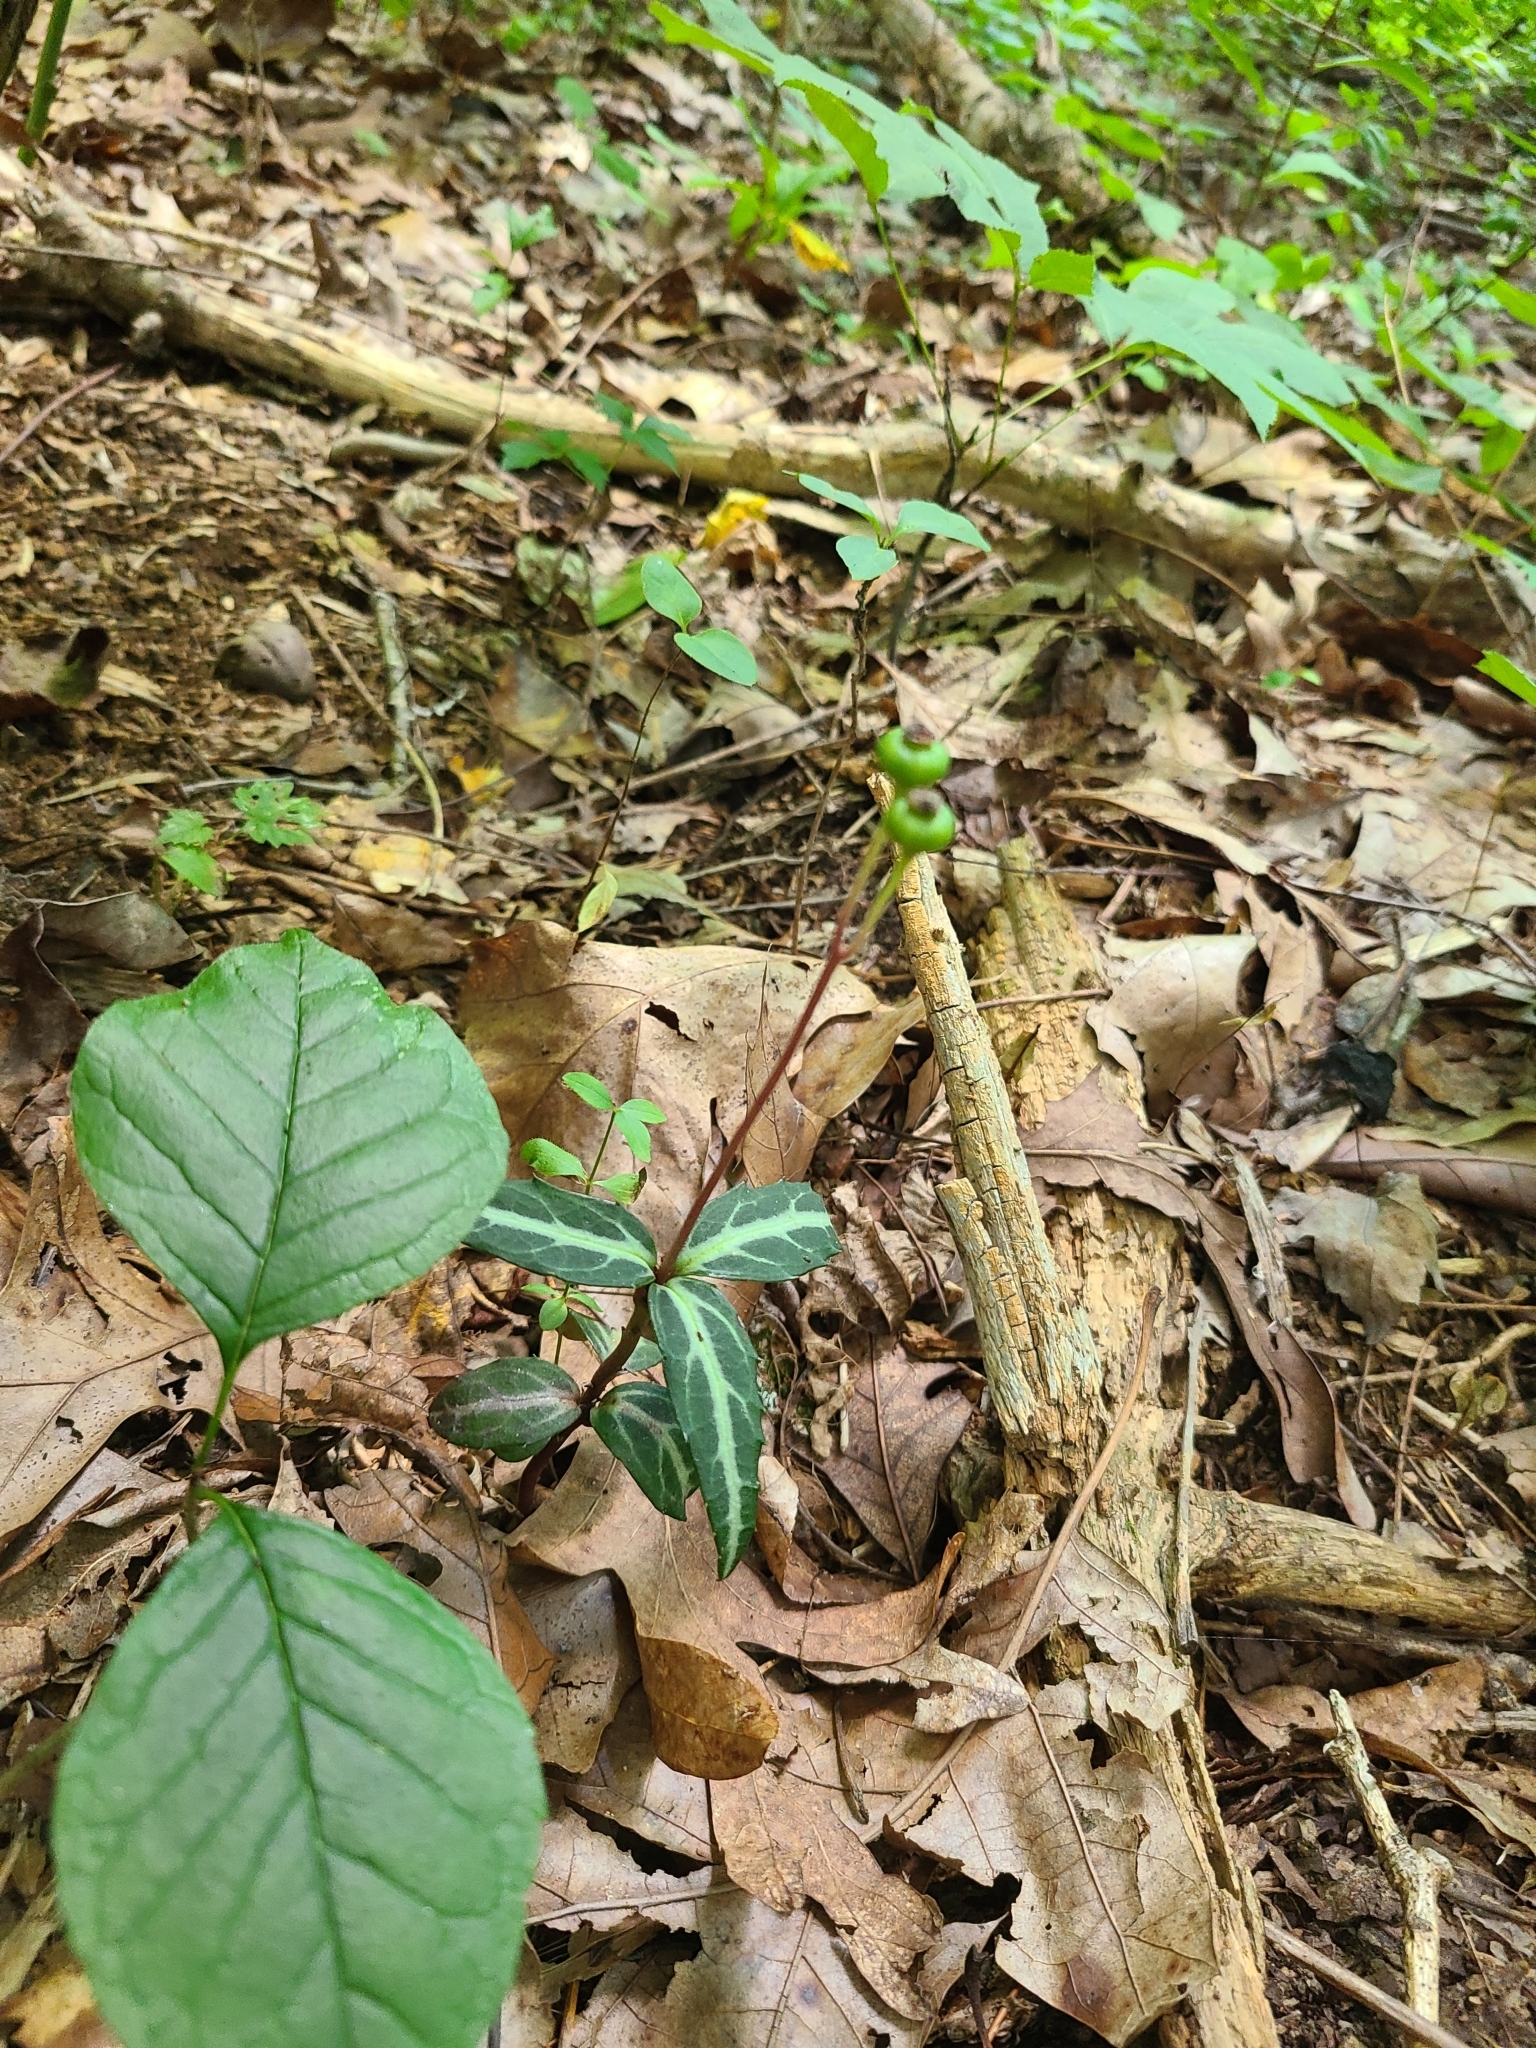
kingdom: Plantae
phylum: Tracheophyta
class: Magnoliopsida
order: Ericales
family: Ericaceae
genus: Chimaphila
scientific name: Chimaphila maculata
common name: Spotted pipsissewa
